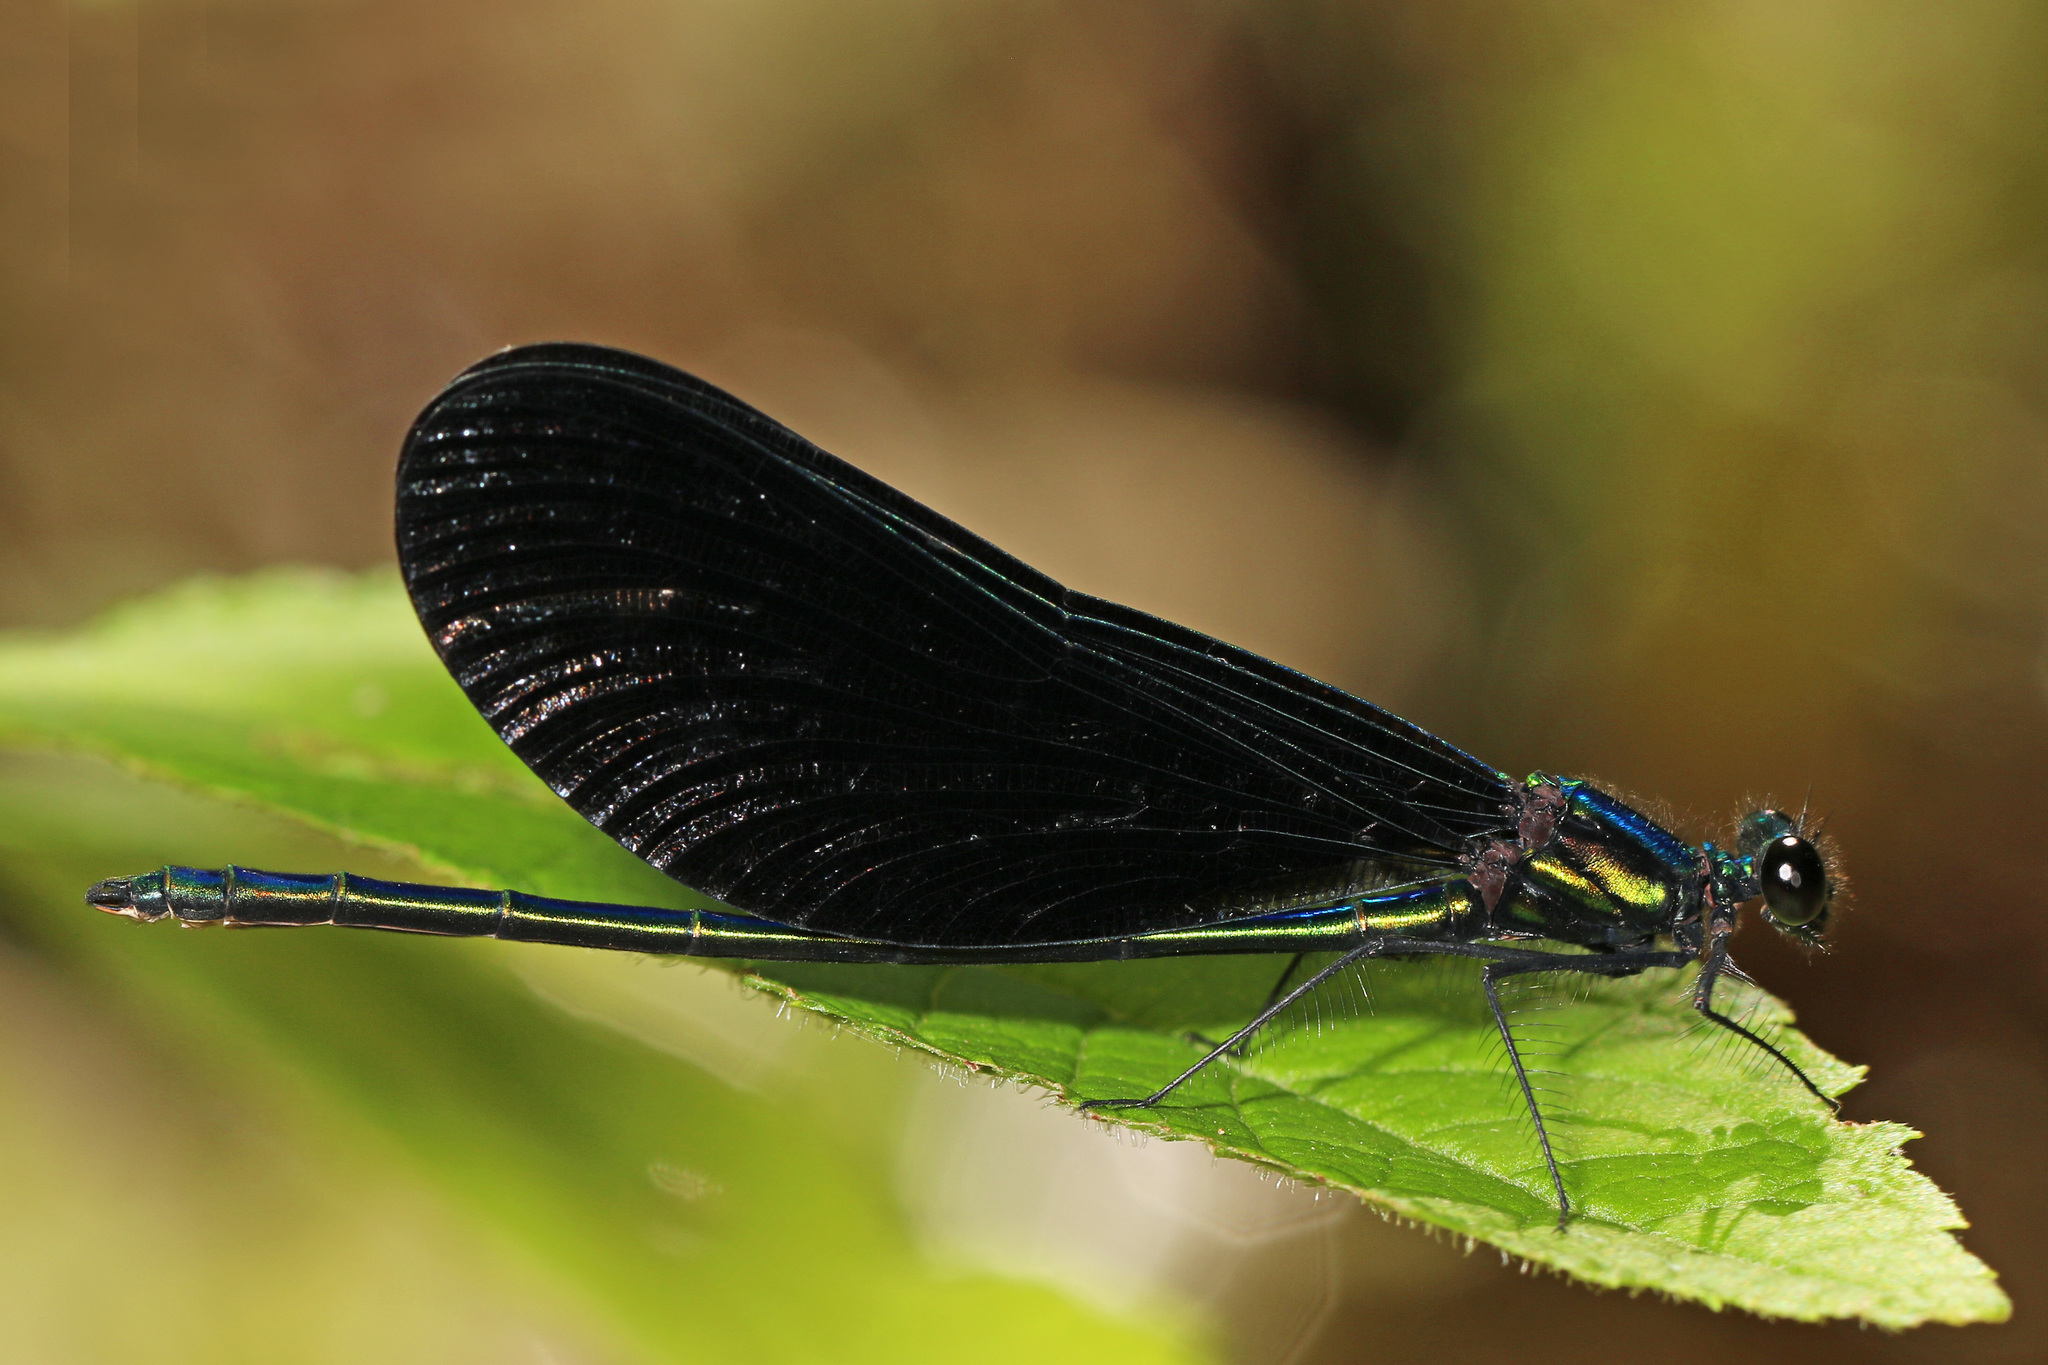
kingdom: Animalia
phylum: Arthropoda
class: Insecta
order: Odonata
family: Calopterygidae
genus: Calopteryx
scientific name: Calopteryx maculata
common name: Ebony jewelwing
